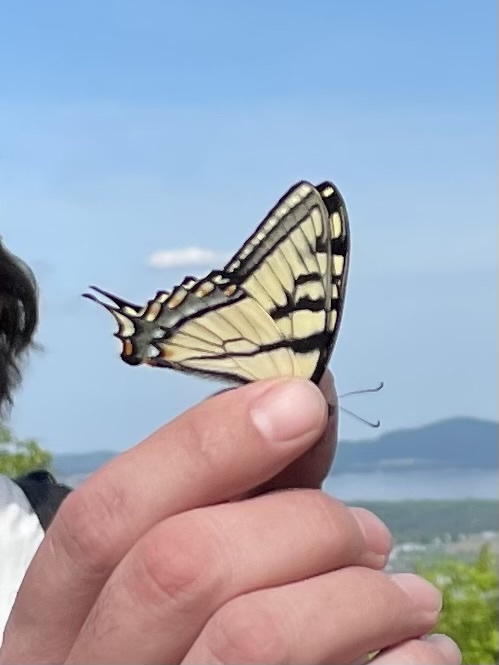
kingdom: Animalia
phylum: Arthropoda
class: Insecta
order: Lepidoptera
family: Papilionidae
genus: Papilio
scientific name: Papilio canadensis
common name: Canadian tiger swallowtail
